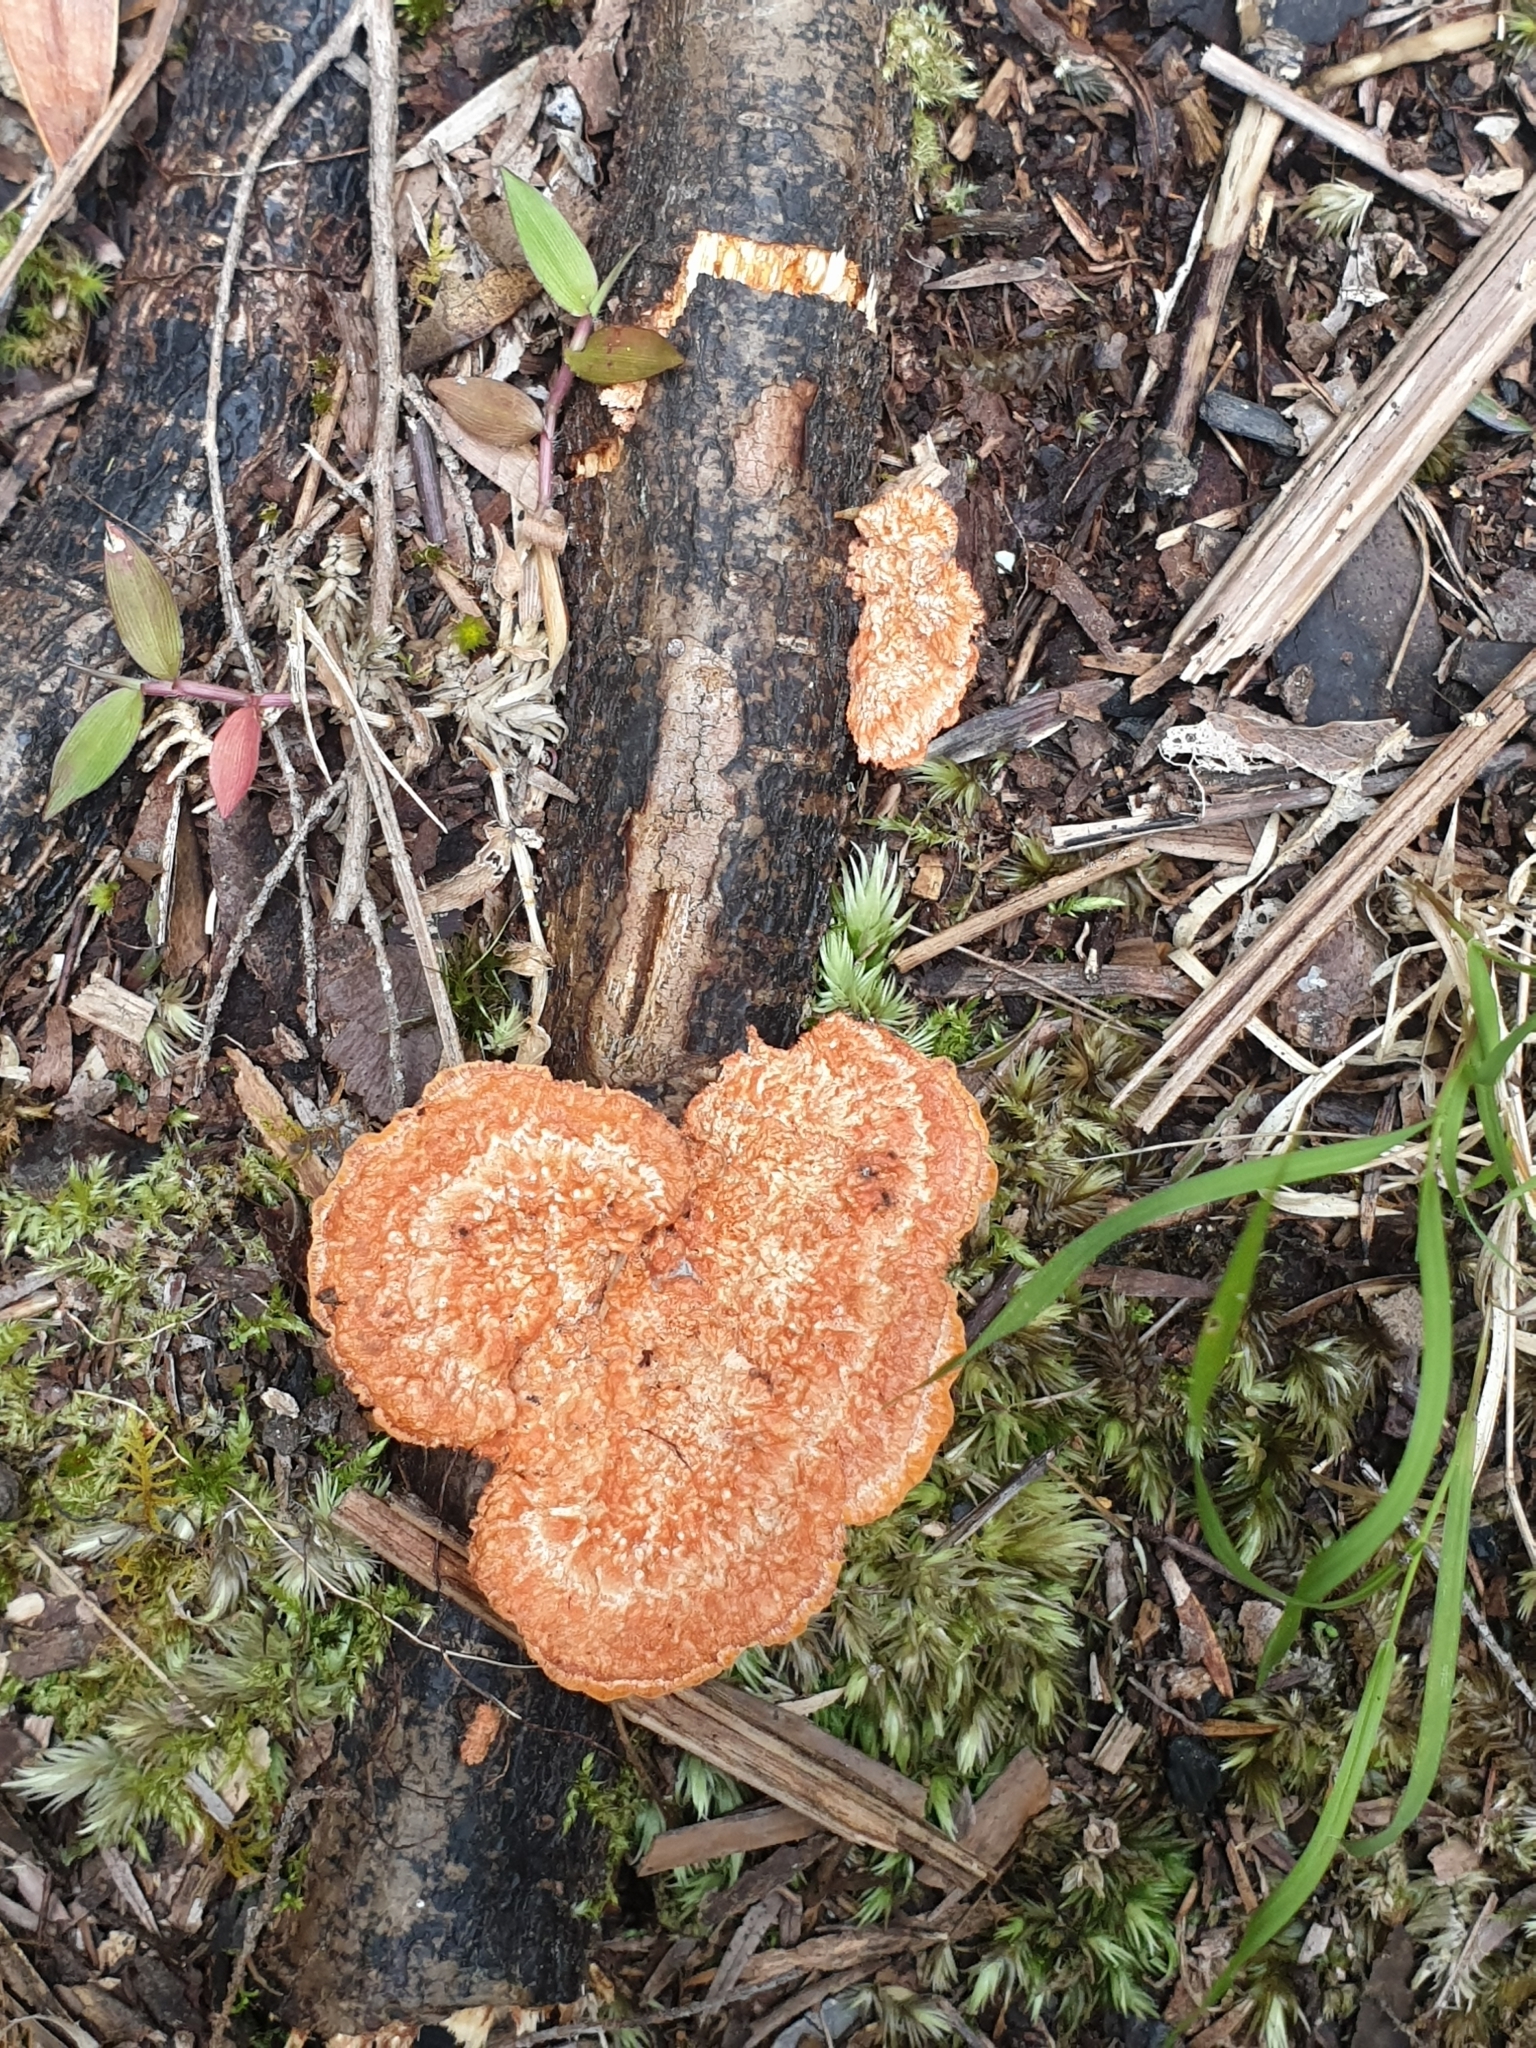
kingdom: Fungi
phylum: Basidiomycota
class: Agaricomycetes
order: Polyporales
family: Polyporaceae
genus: Trametes
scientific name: Trametes coccinea
